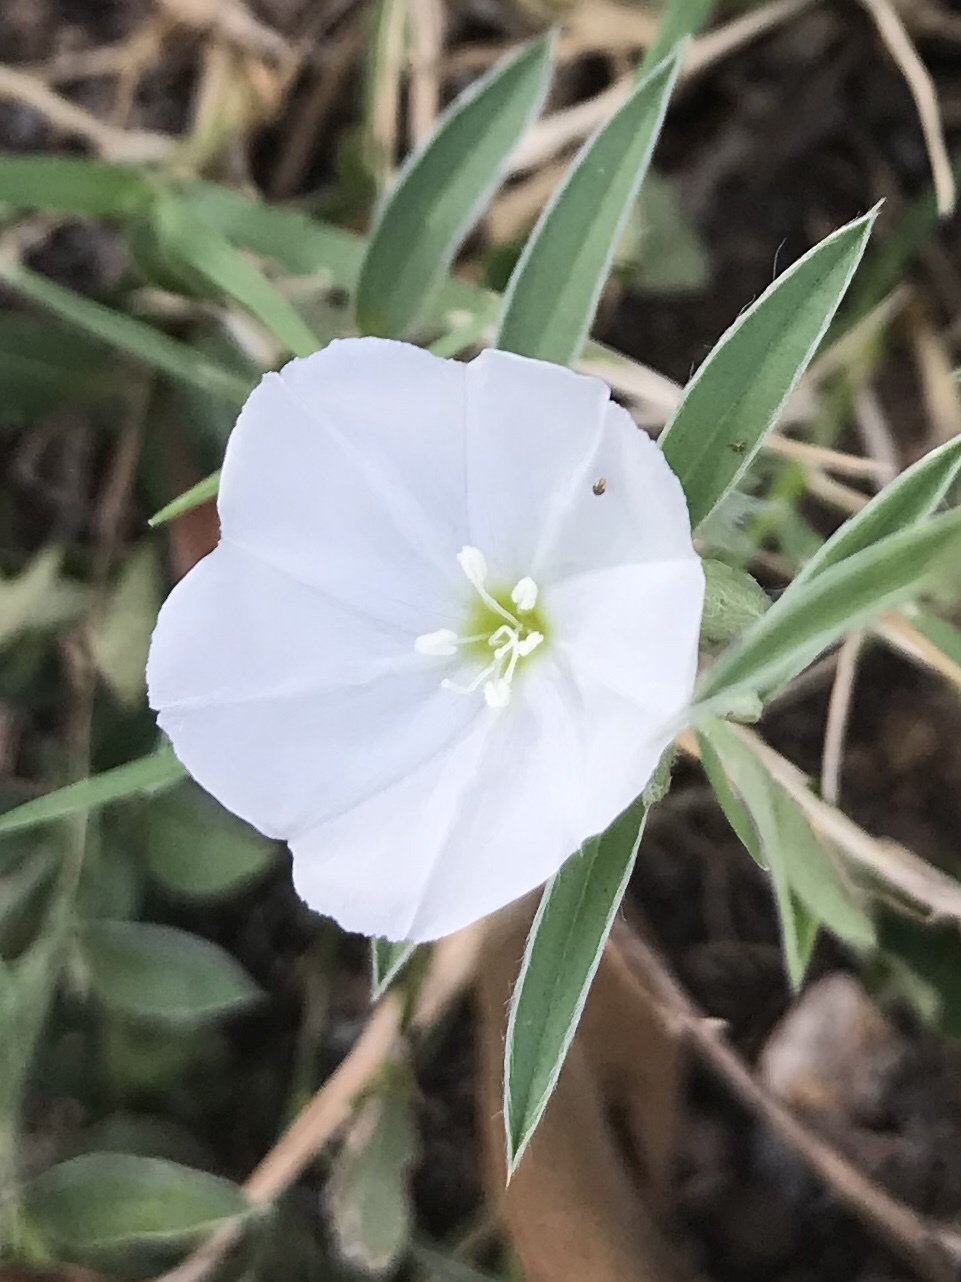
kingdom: Plantae
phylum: Tracheophyta
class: Magnoliopsida
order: Solanales
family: Convolvulaceae
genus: Evolvulus
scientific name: Evolvulus sericeus
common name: Blue dots
